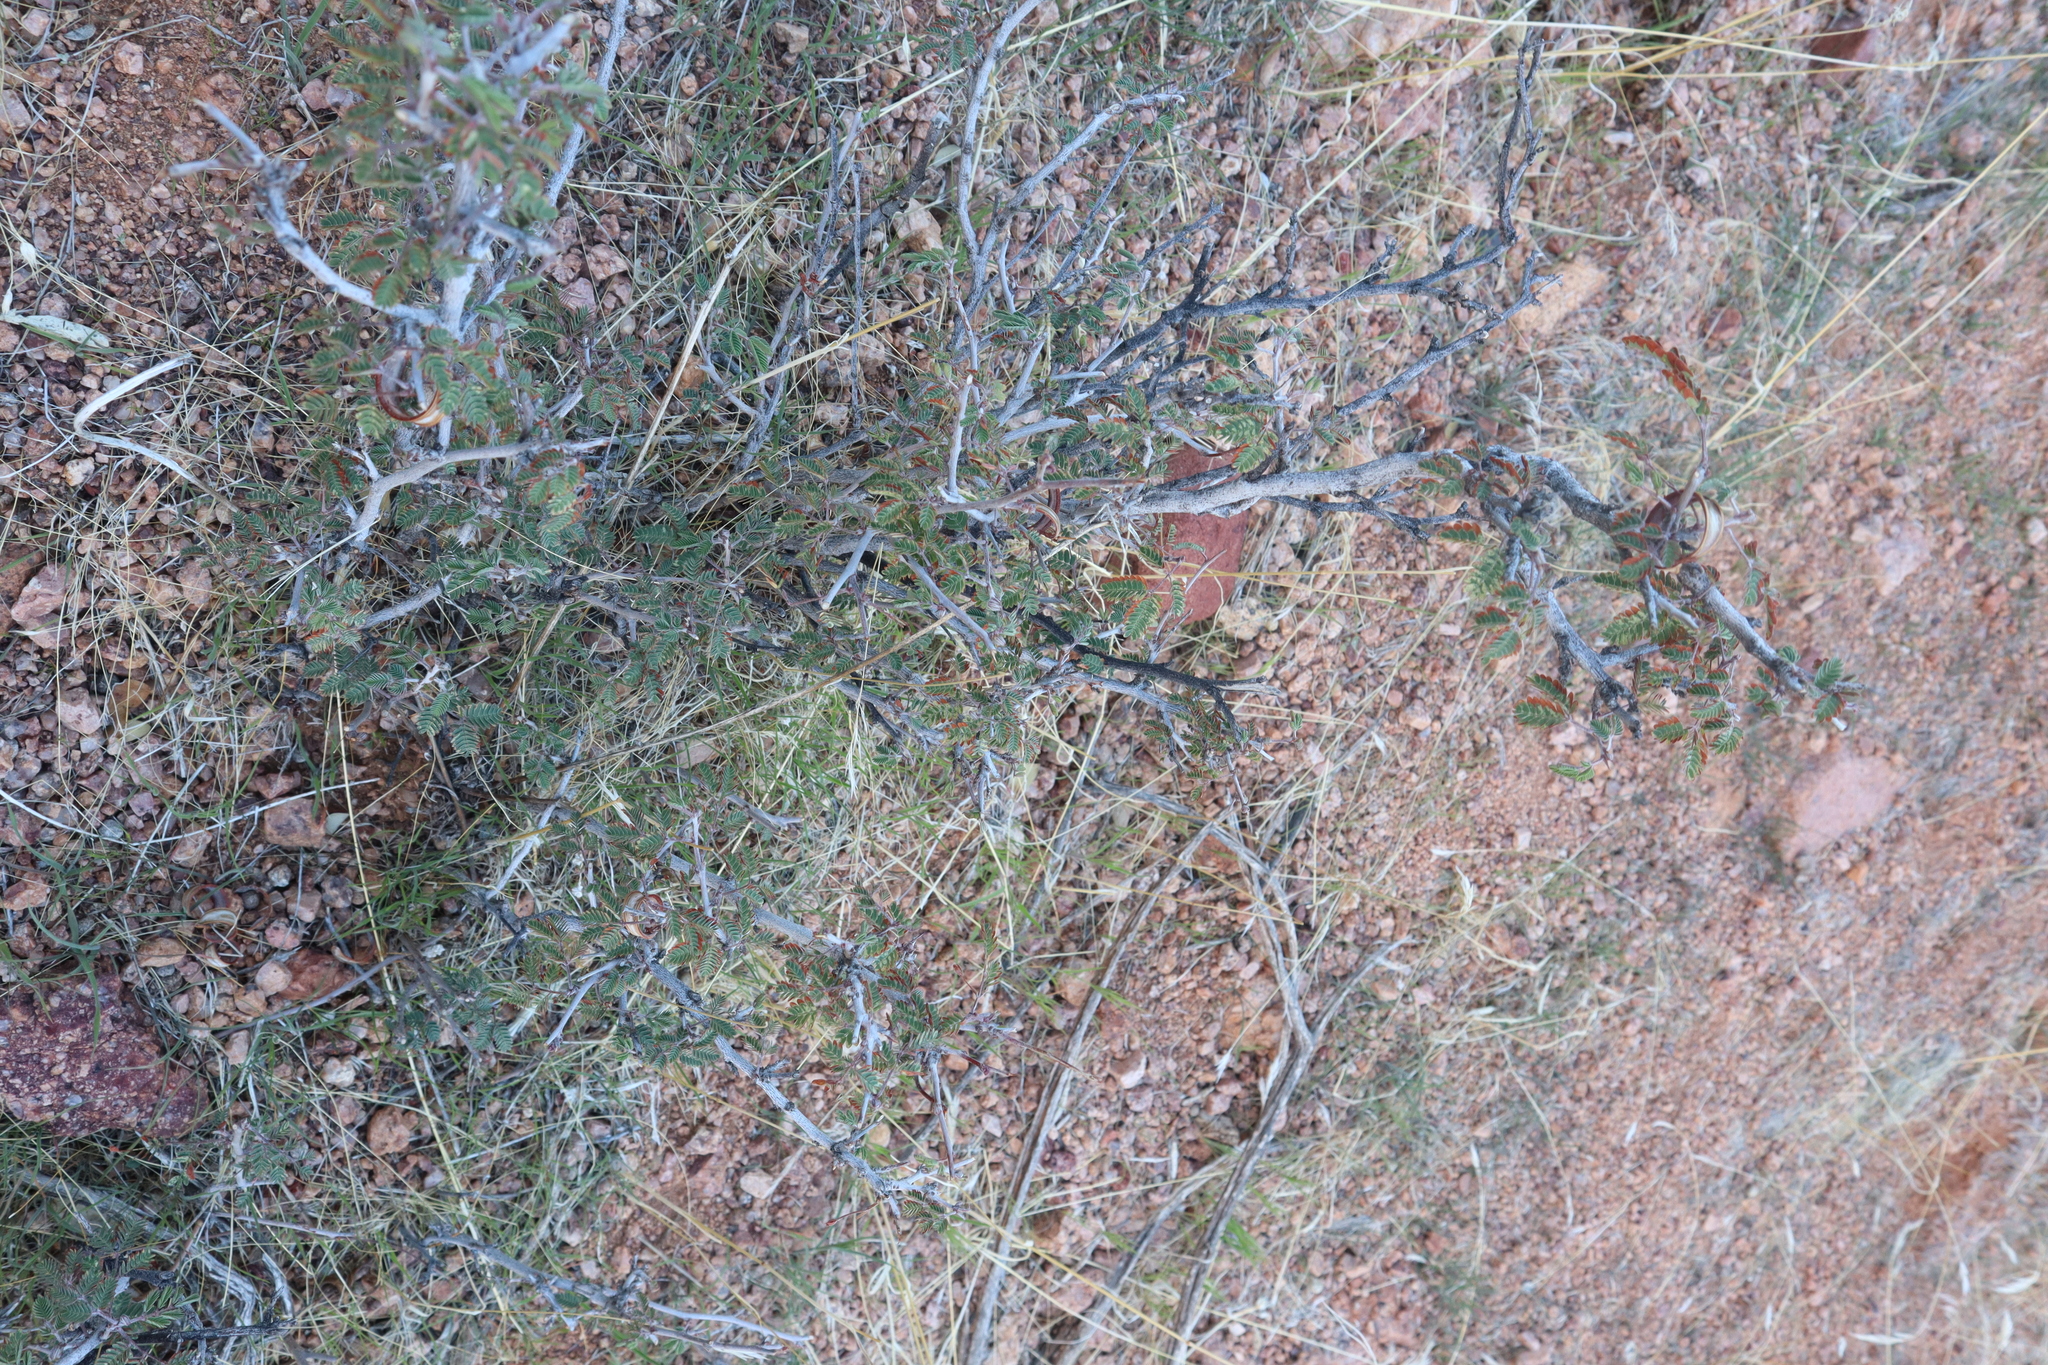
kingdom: Plantae
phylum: Tracheophyta
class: Magnoliopsida
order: Fabales
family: Fabaceae
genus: Calliandra
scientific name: Calliandra eriophylla
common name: Fairy-duster
